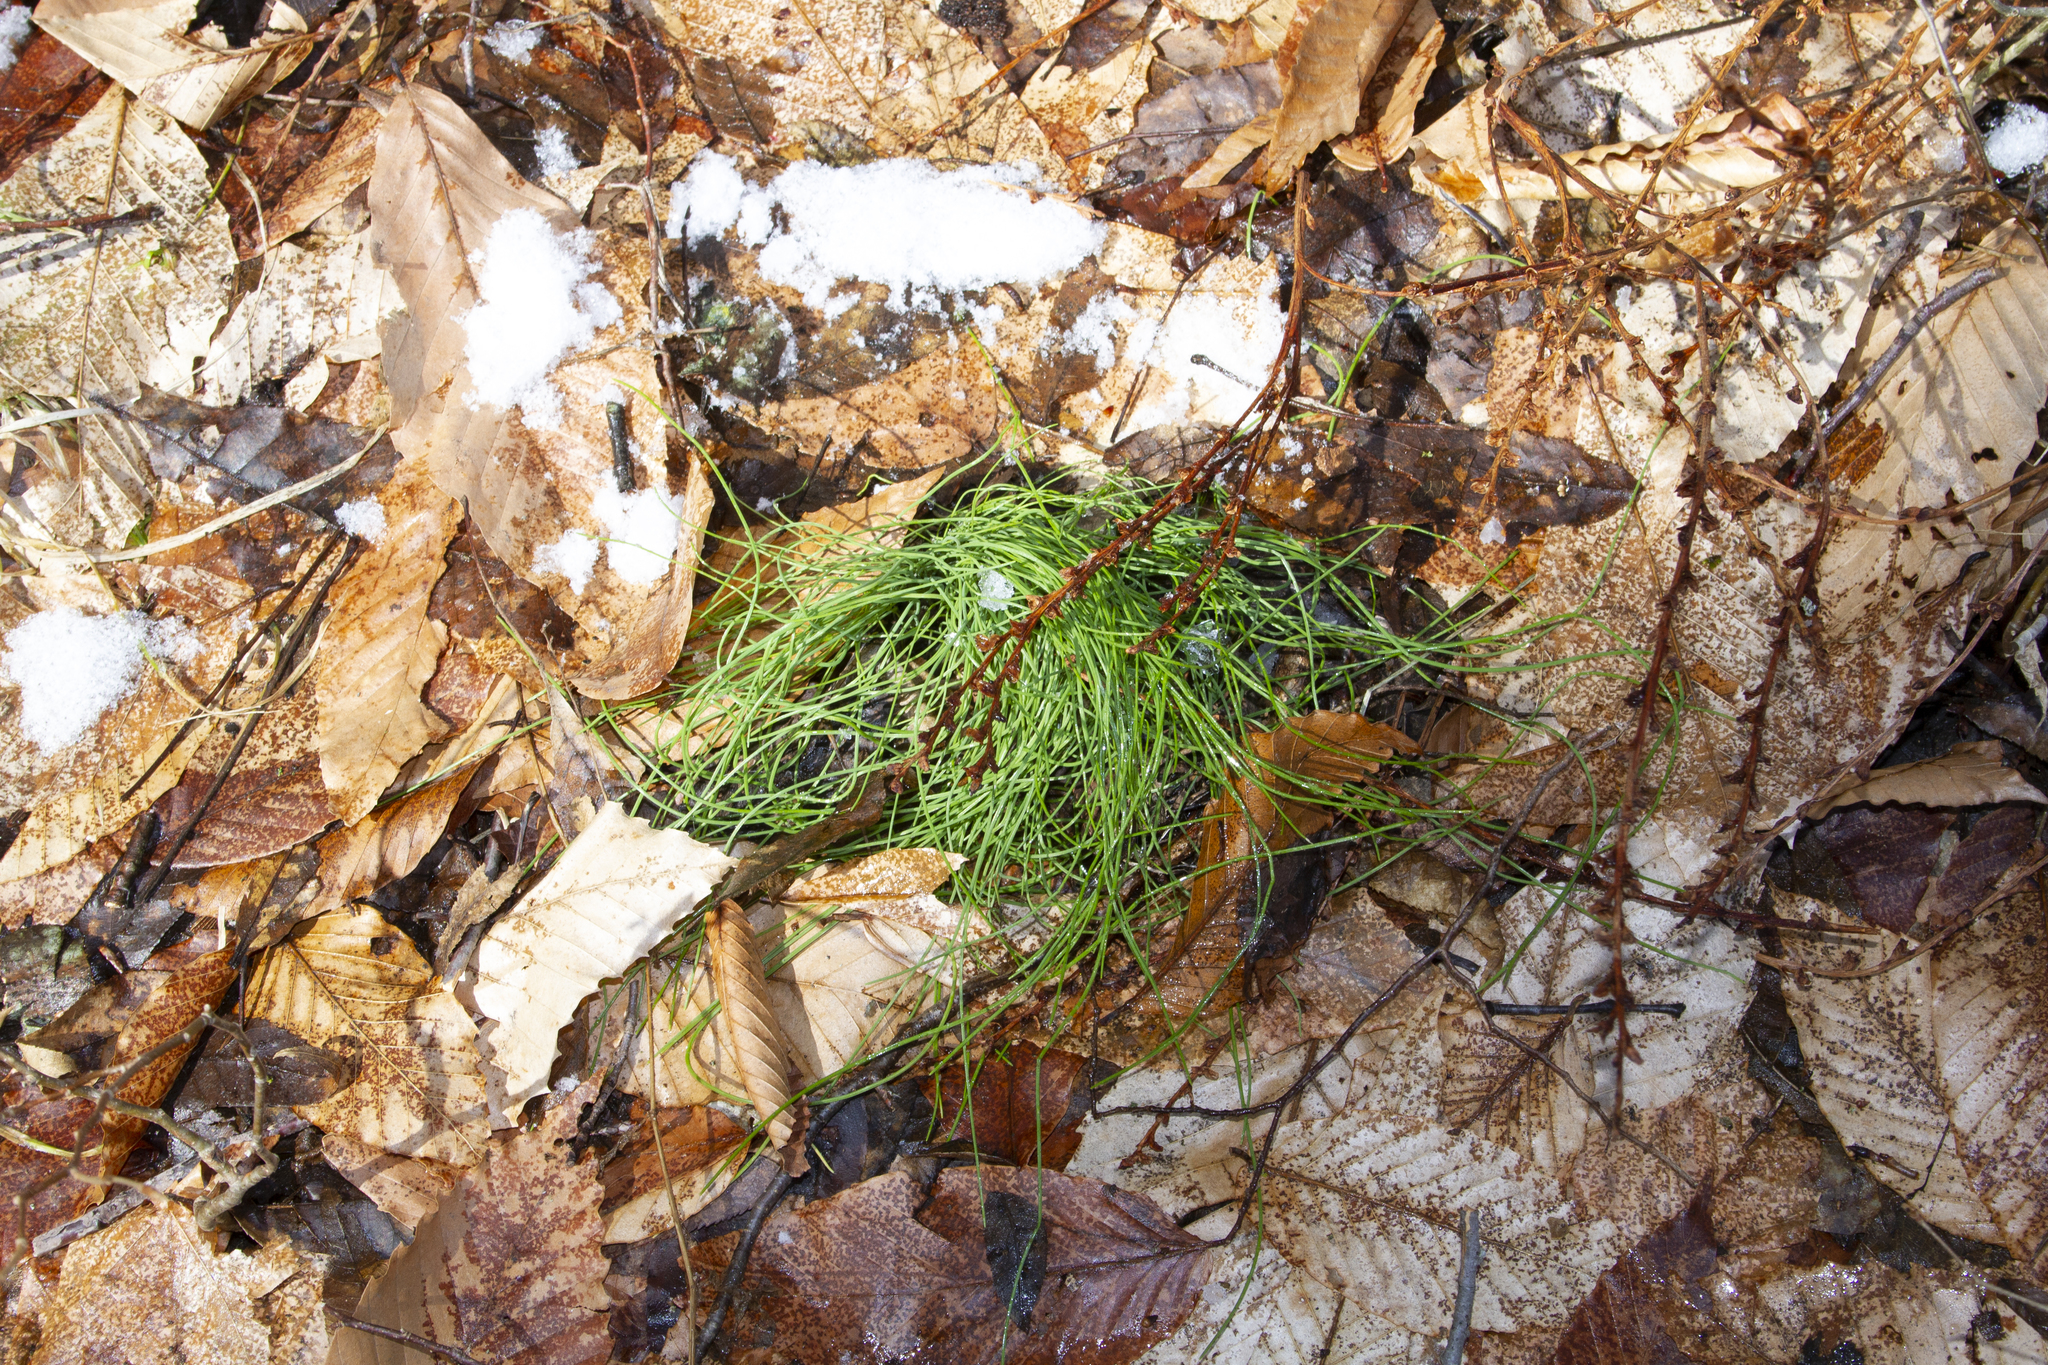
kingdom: Plantae
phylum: Tracheophyta
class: Magnoliopsida
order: Lamiales
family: Orobanchaceae
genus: Epifagus
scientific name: Epifagus virginiana
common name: Beechdrops
